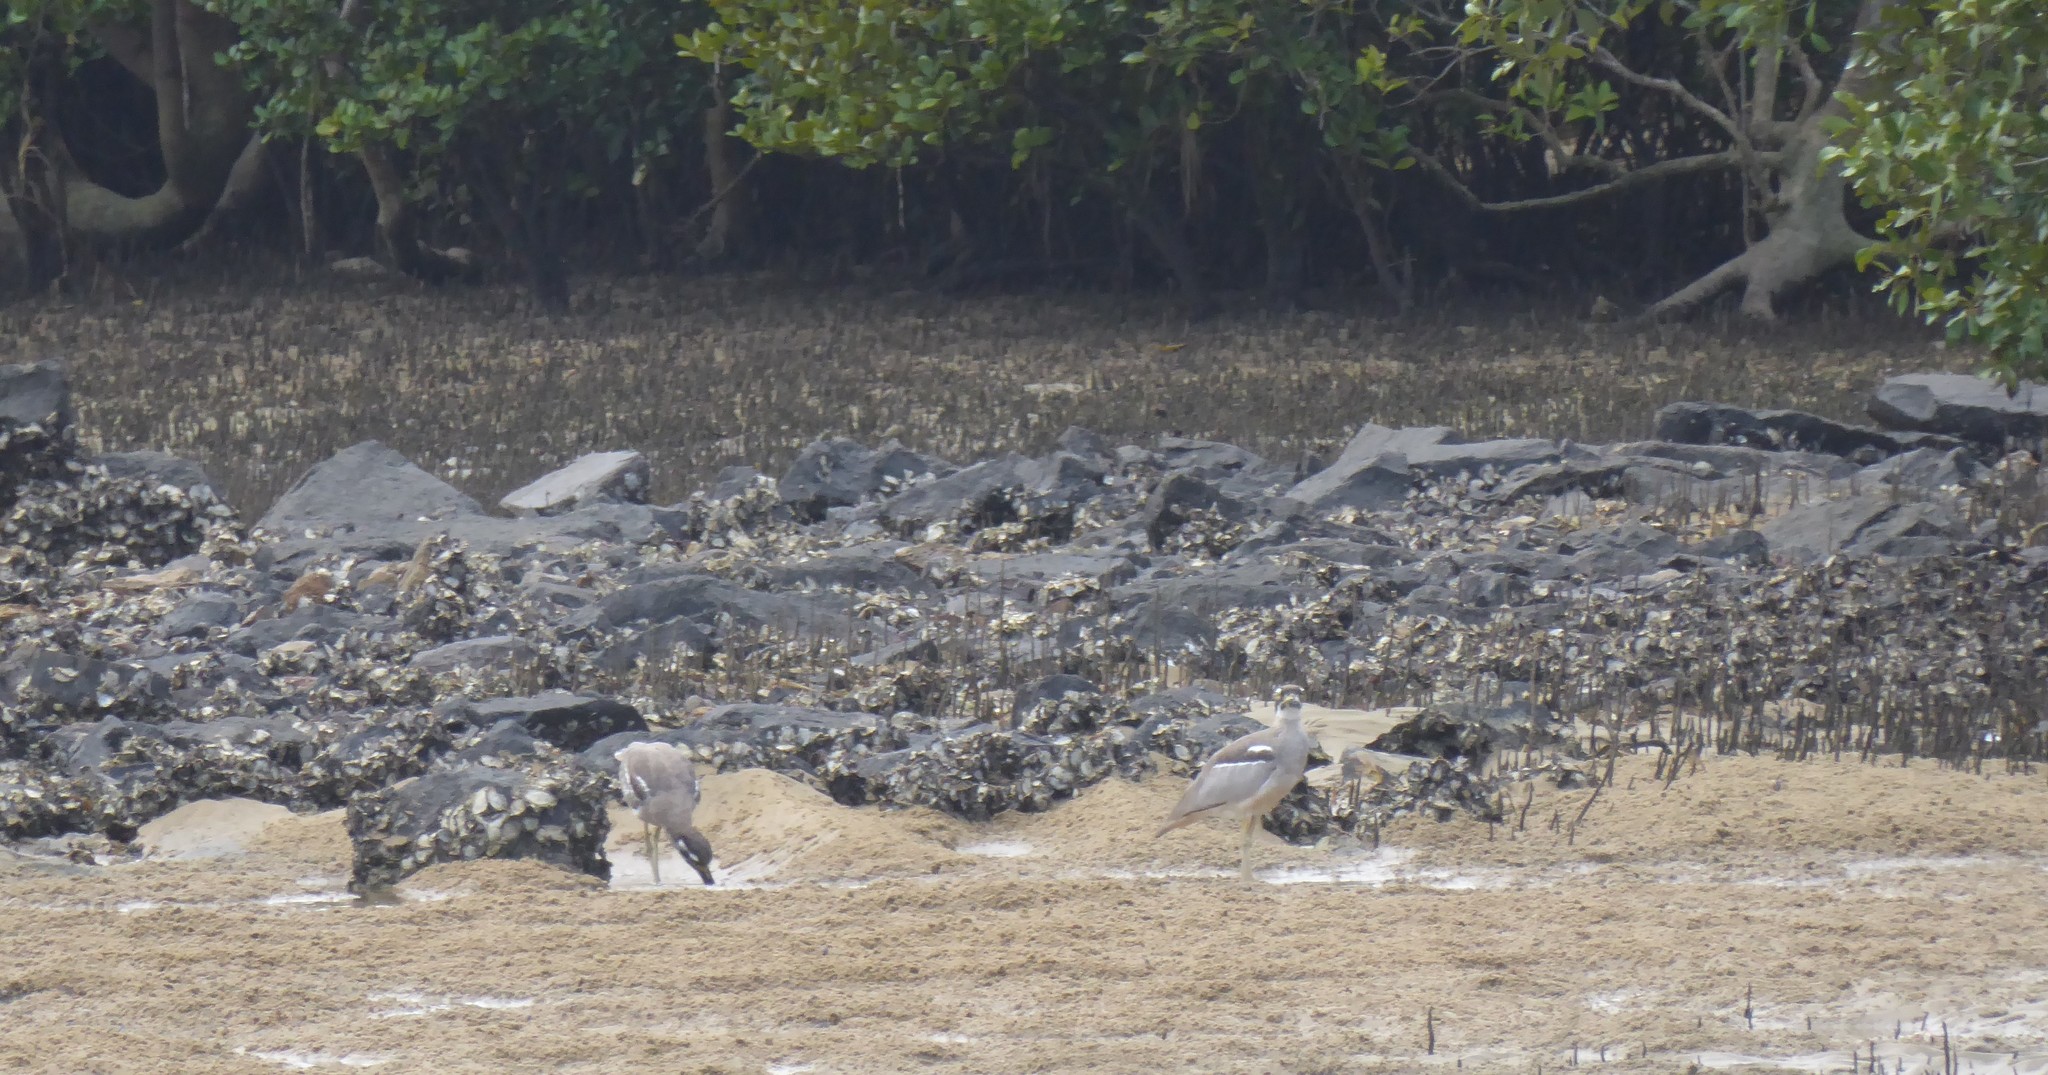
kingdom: Animalia
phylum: Chordata
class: Aves
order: Charadriiformes
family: Burhinidae
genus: Esacus
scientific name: Esacus magnirostris
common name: Beach stone-curlew
